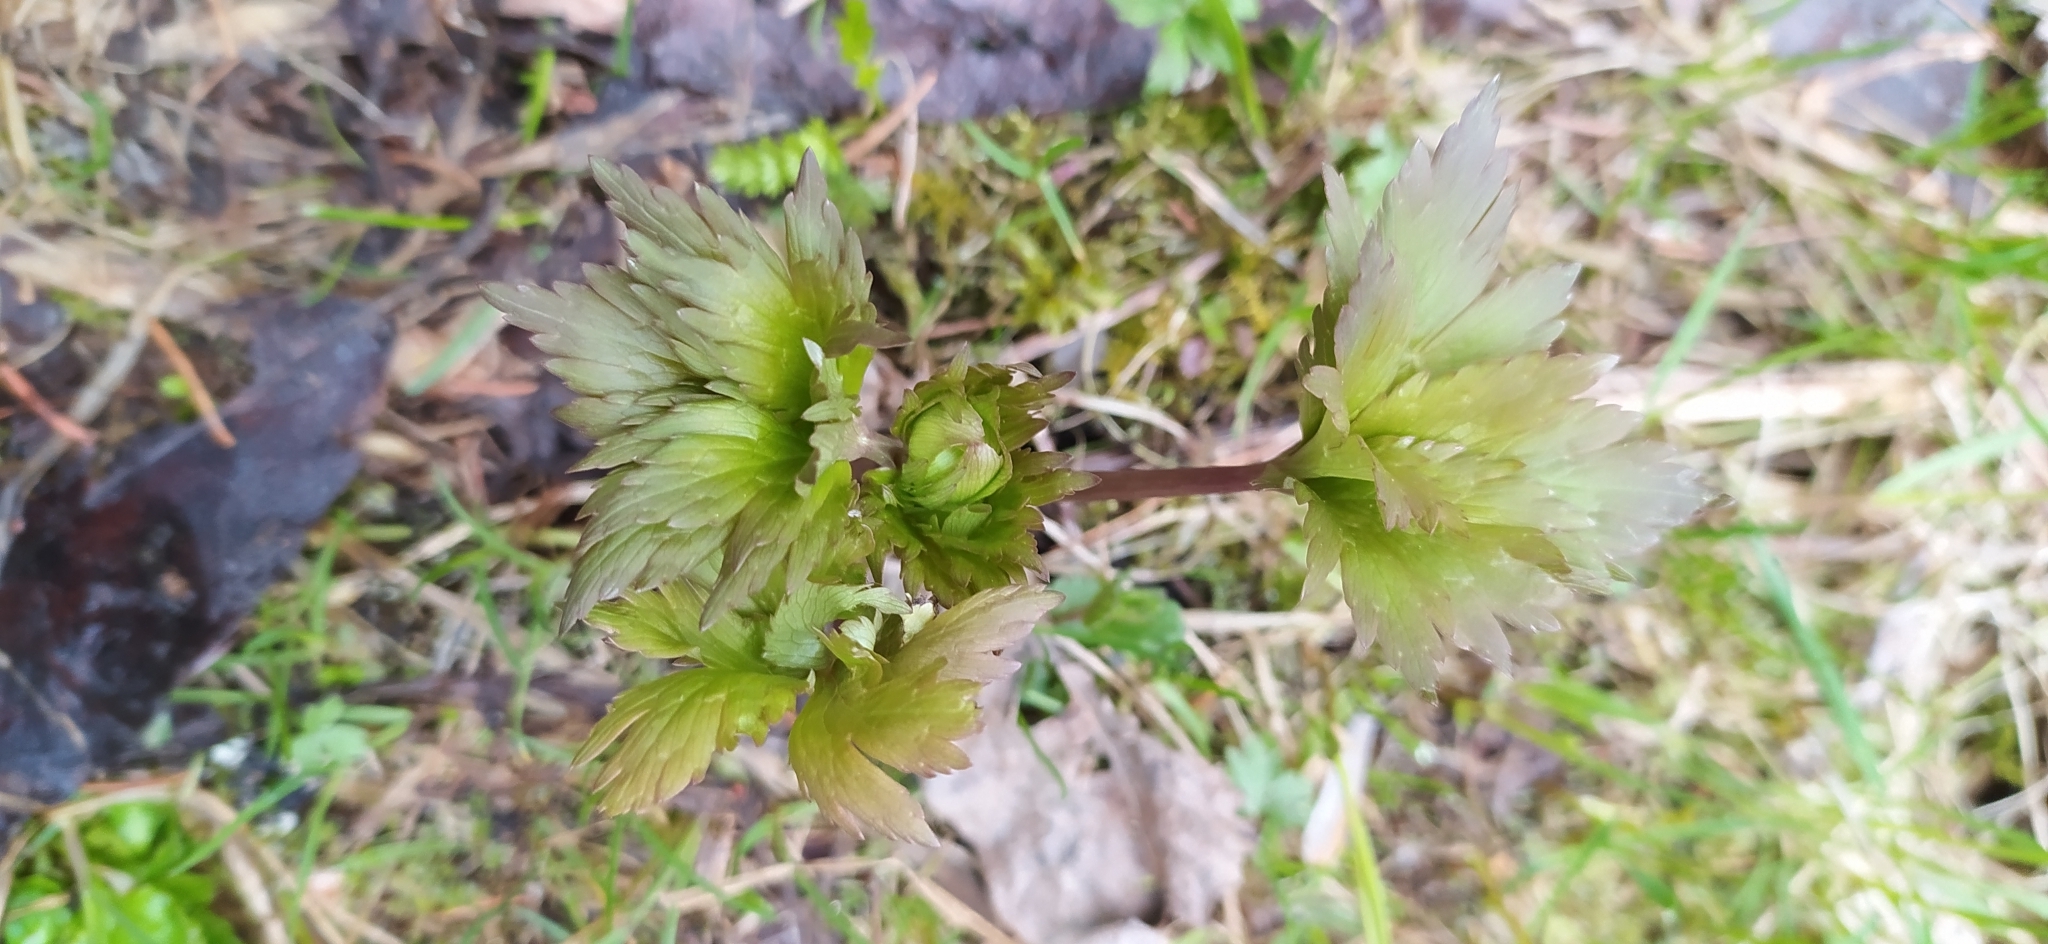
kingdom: Plantae
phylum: Tracheophyta
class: Magnoliopsida
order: Ranunculales
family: Ranunculaceae
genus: Trollius
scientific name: Trollius europaeus
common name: European globeflower
